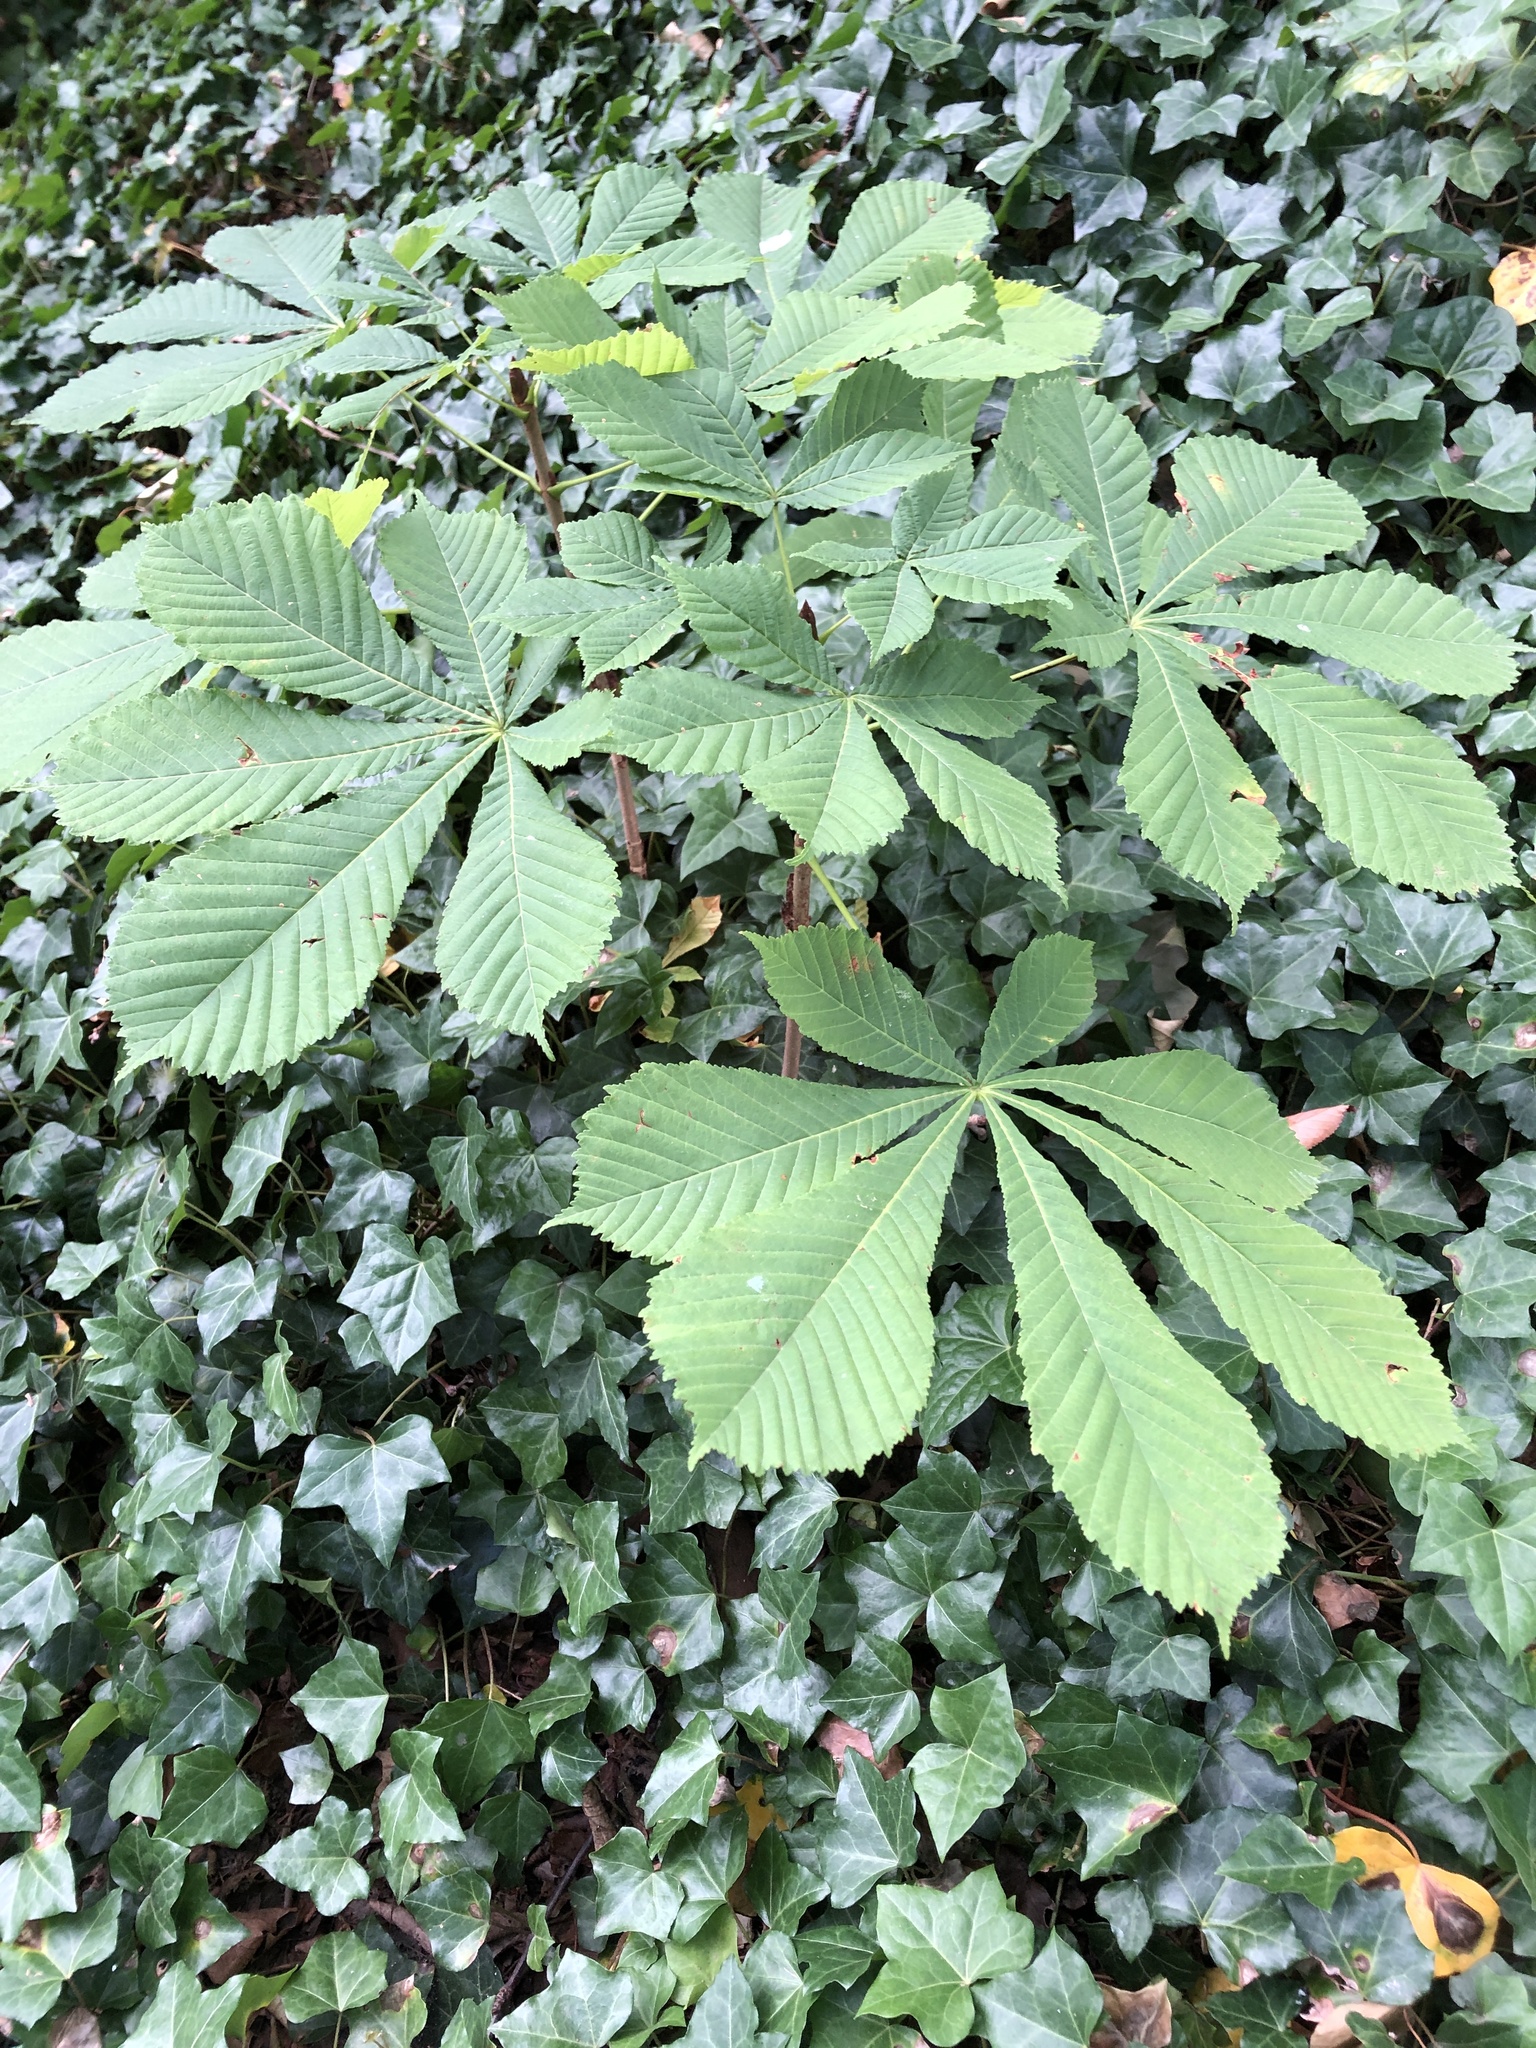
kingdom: Plantae
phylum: Tracheophyta
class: Magnoliopsida
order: Sapindales
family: Sapindaceae
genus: Aesculus
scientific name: Aesculus hippocastanum
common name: Horse-chestnut
